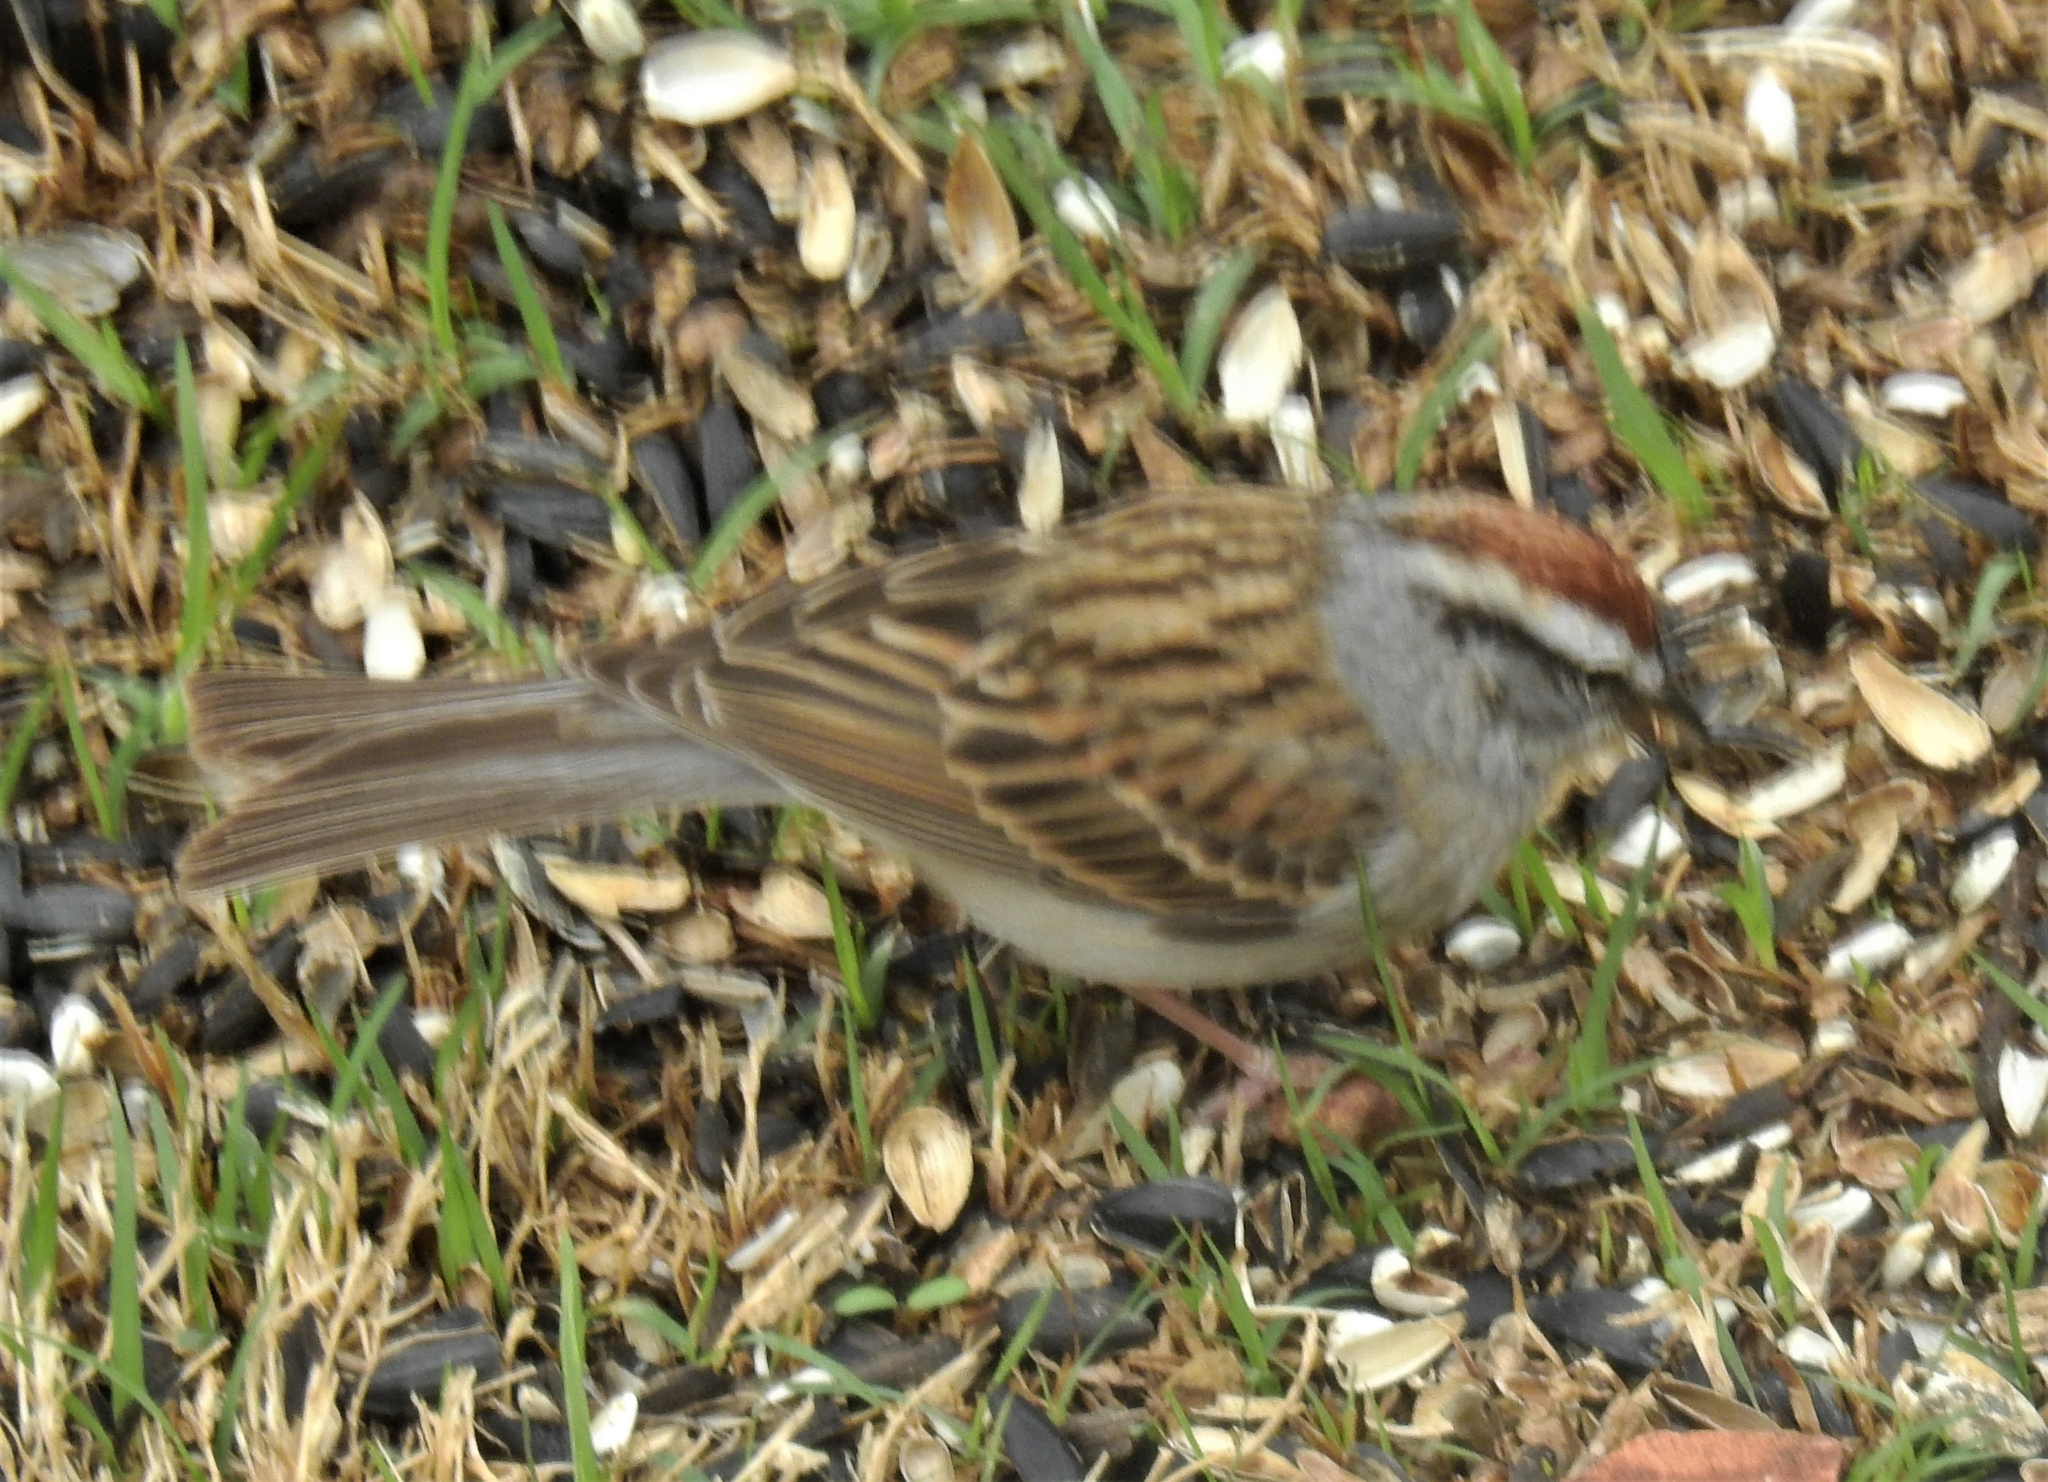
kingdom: Animalia
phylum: Chordata
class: Aves
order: Passeriformes
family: Passerellidae
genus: Spizella
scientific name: Spizella passerina
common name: Chipping sparrow
